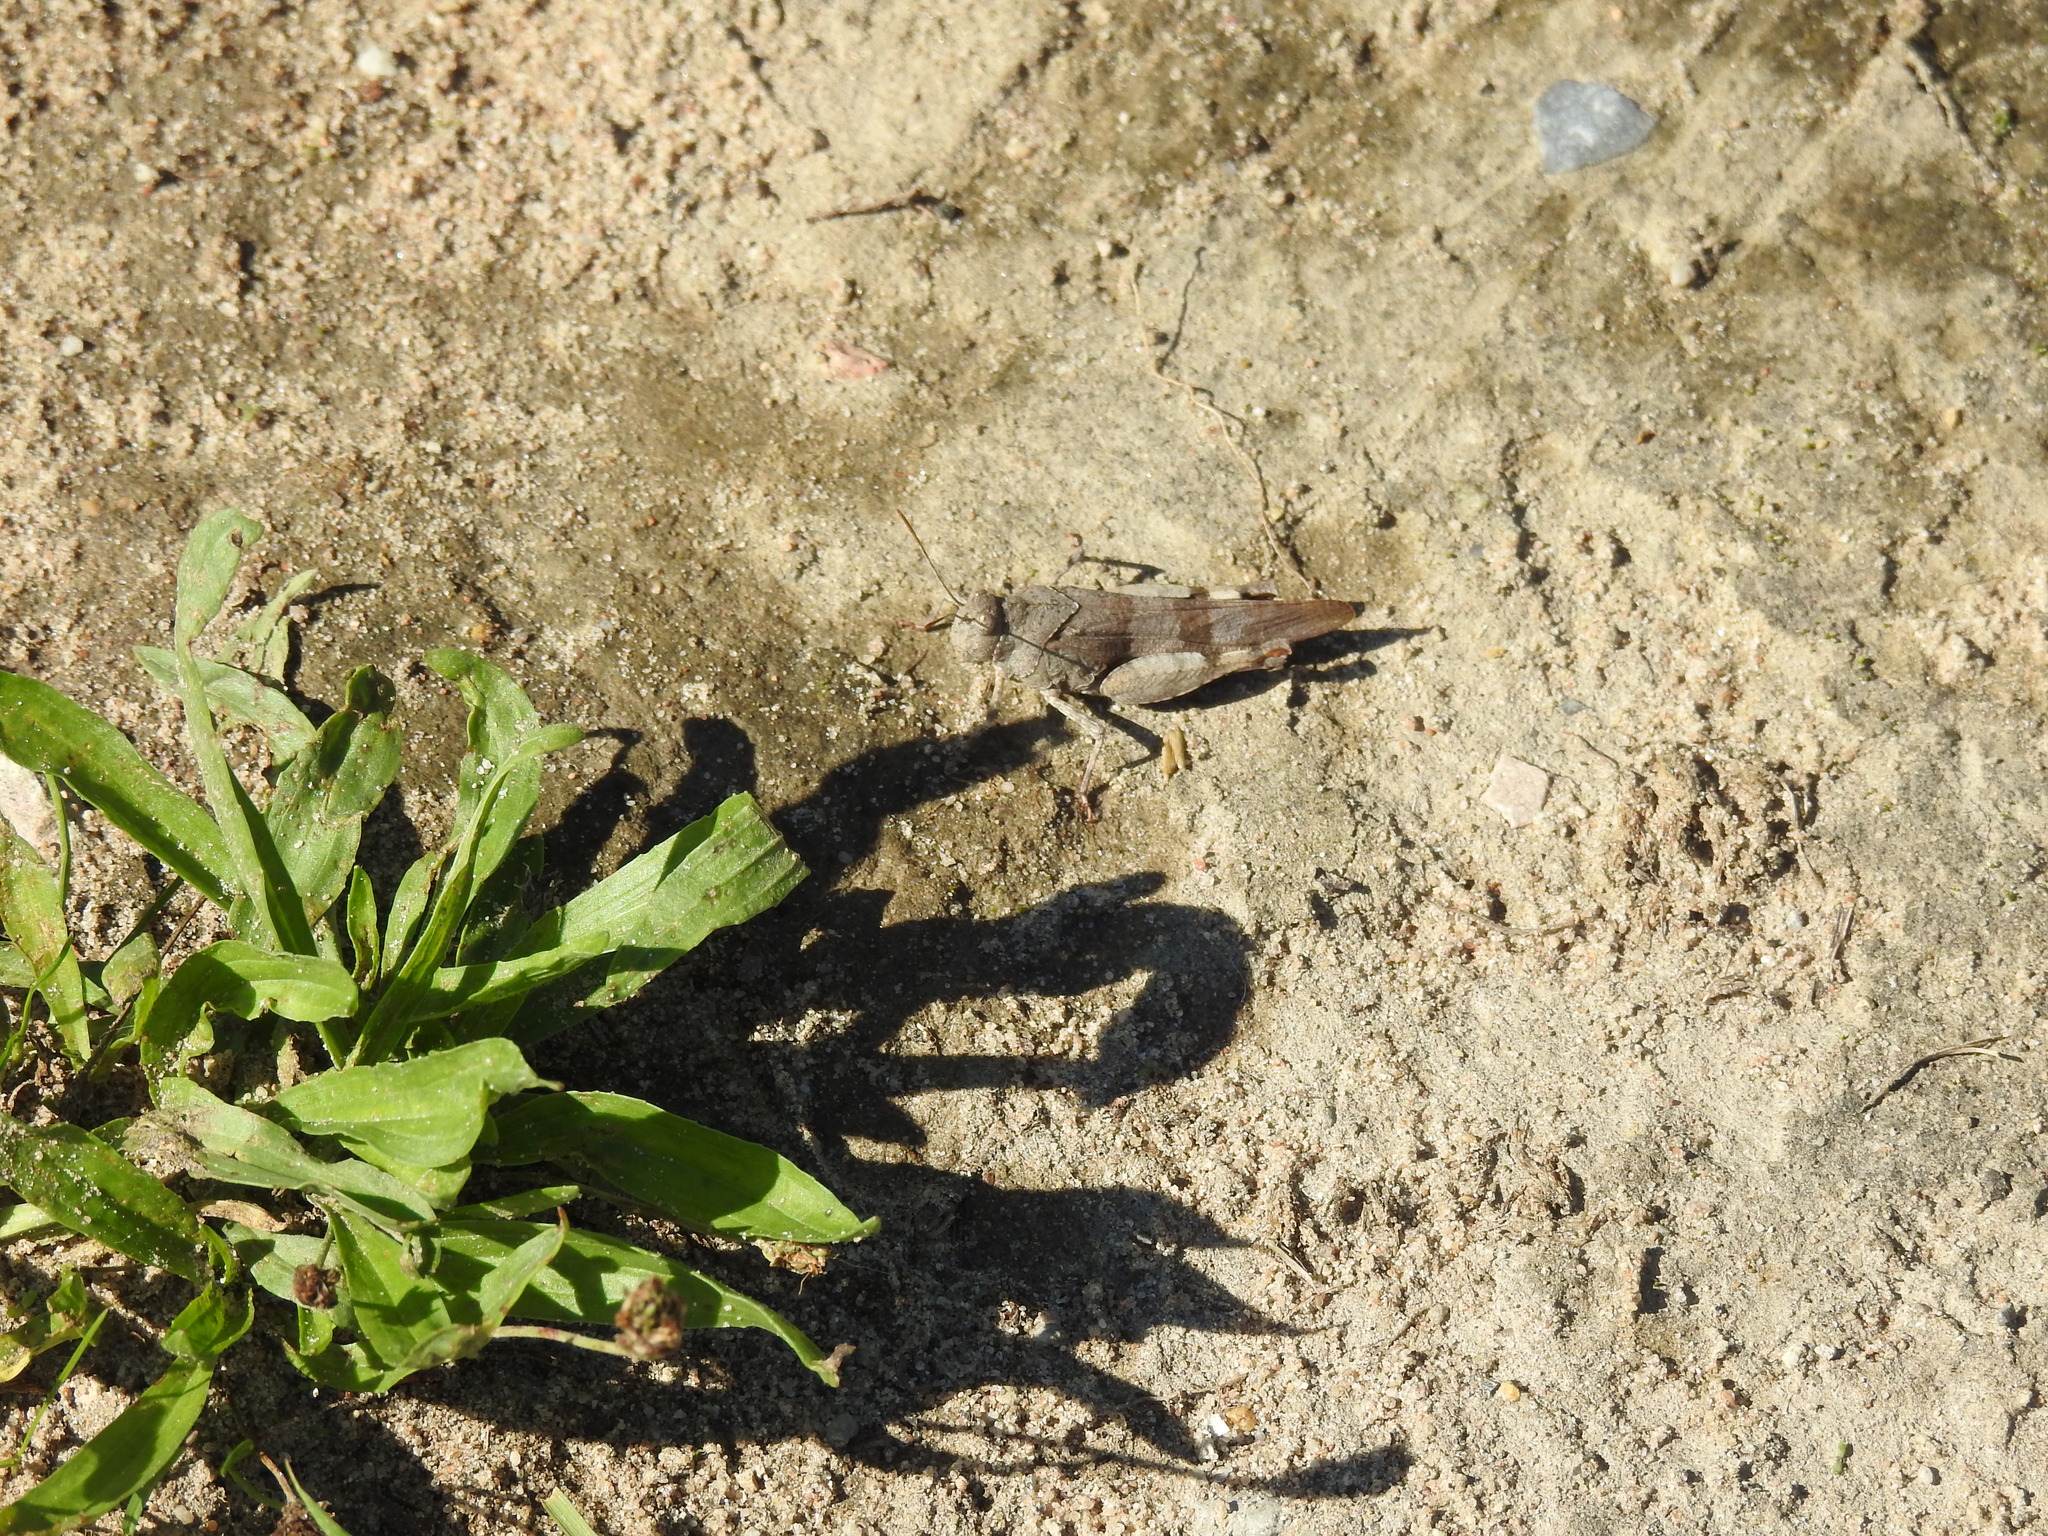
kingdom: Animalia
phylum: Arthropoda
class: Insecta
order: Orthoptera
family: Acrididae
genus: Oedipoda
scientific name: Oedipoda caerulescens
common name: Blue-winged grasshopper
